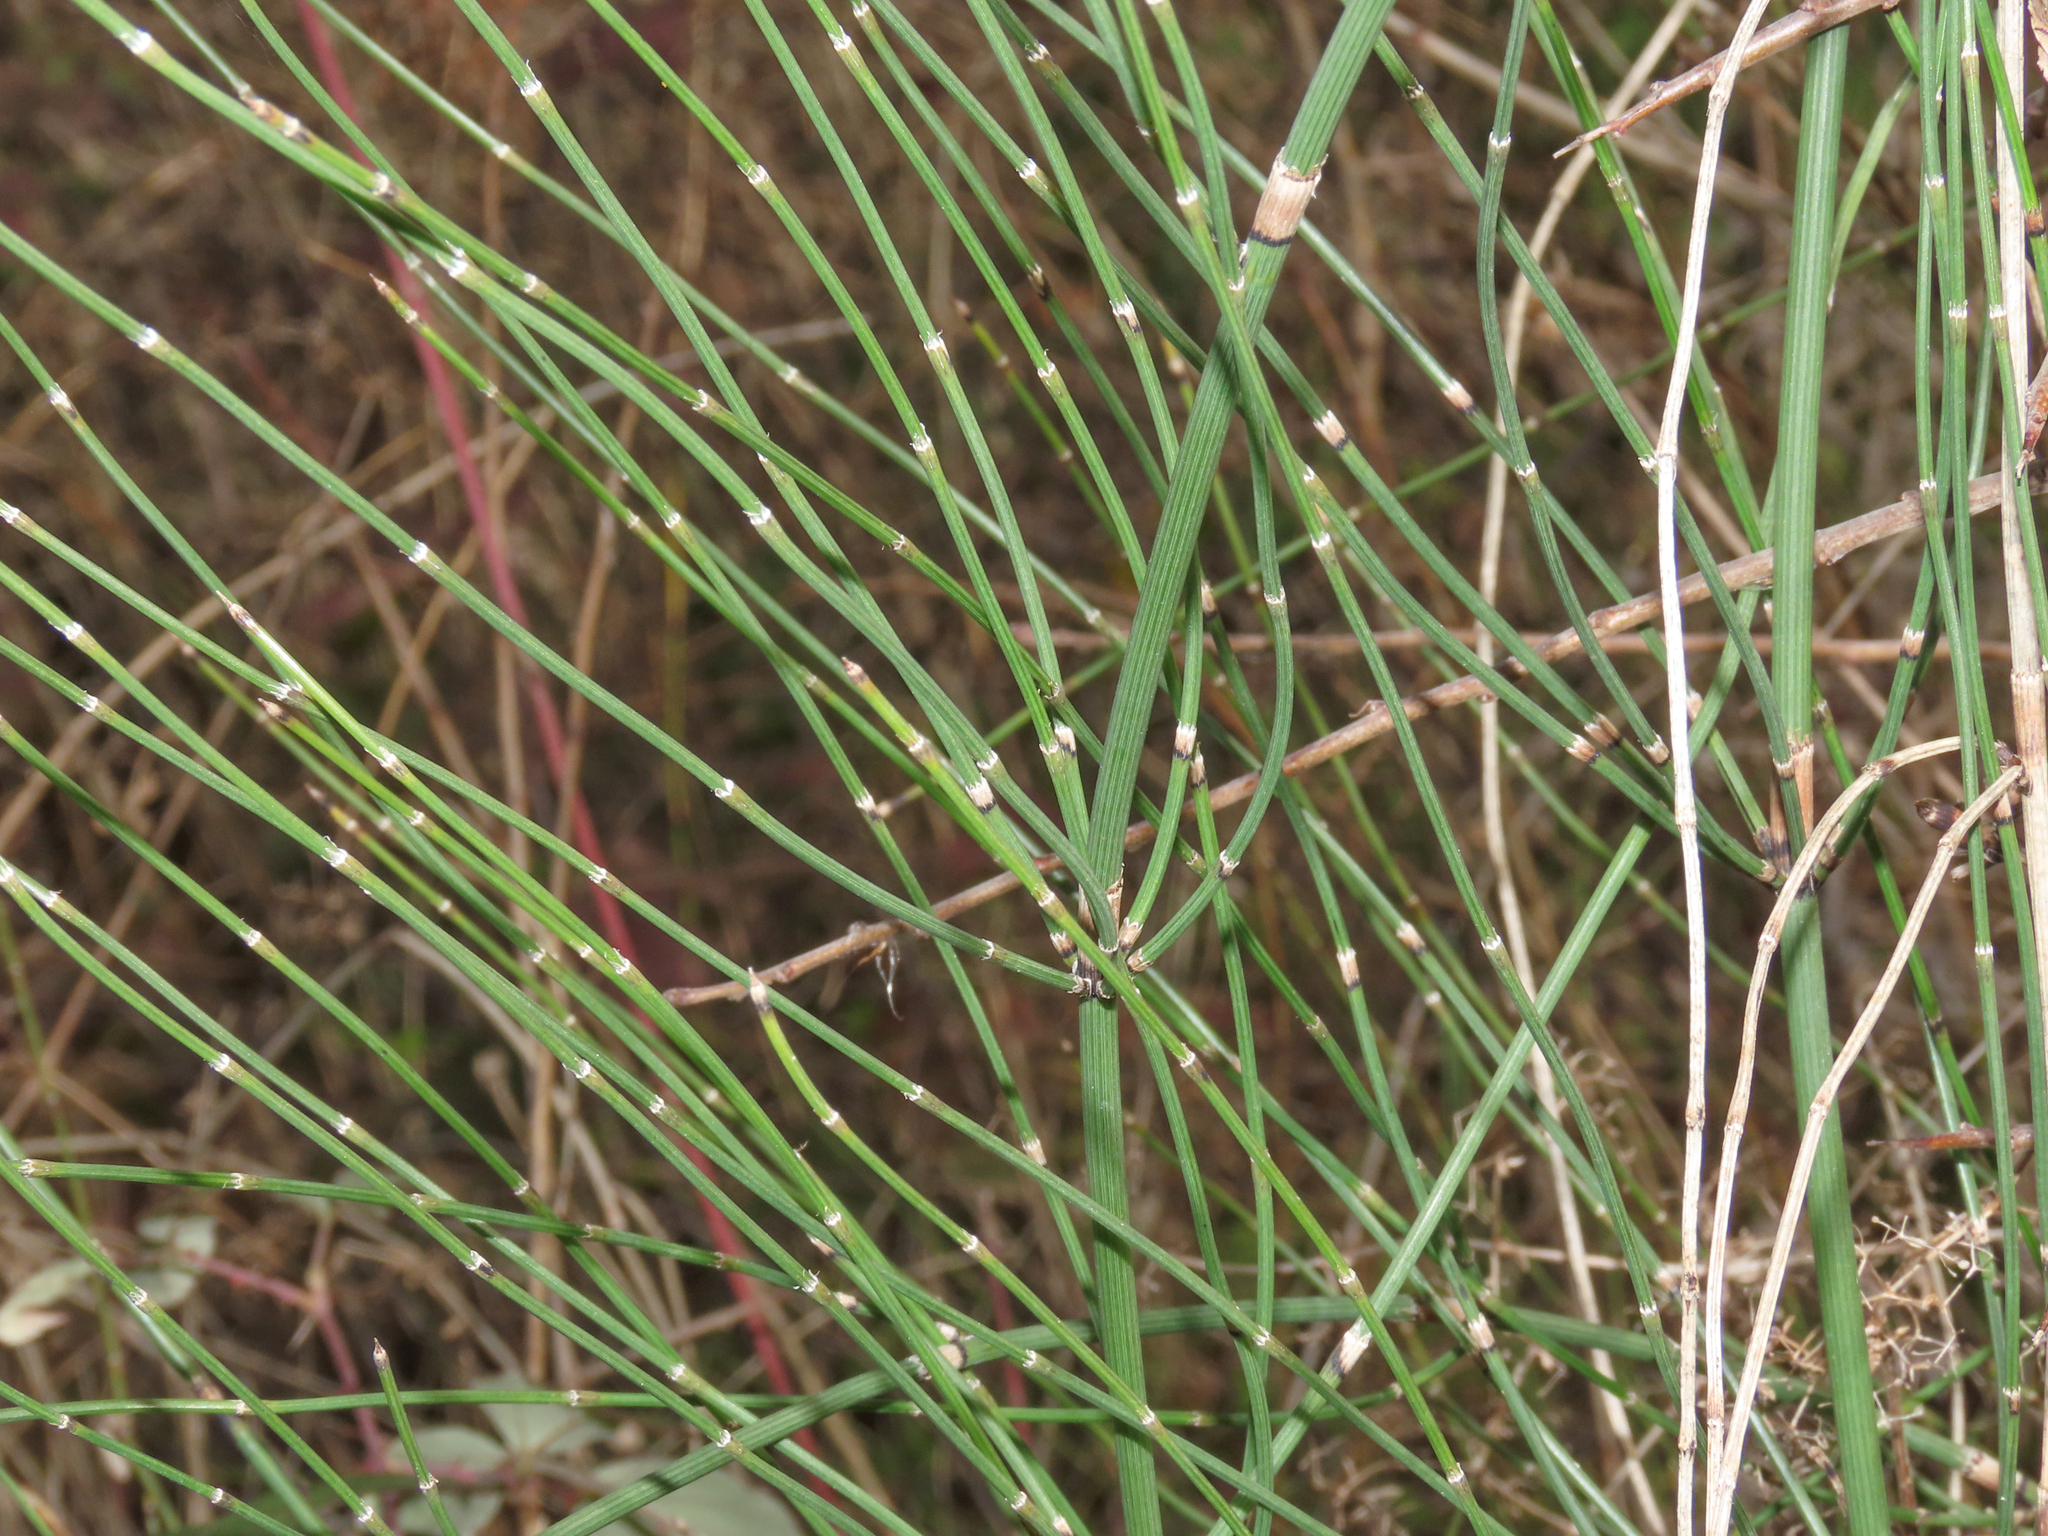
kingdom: Plantae
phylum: Tracheophyta
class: Polypodiopsida
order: Equisetales
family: Equisetaceae
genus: Equisetum
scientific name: Equisetum ramosissimum
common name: Branched horsetail
